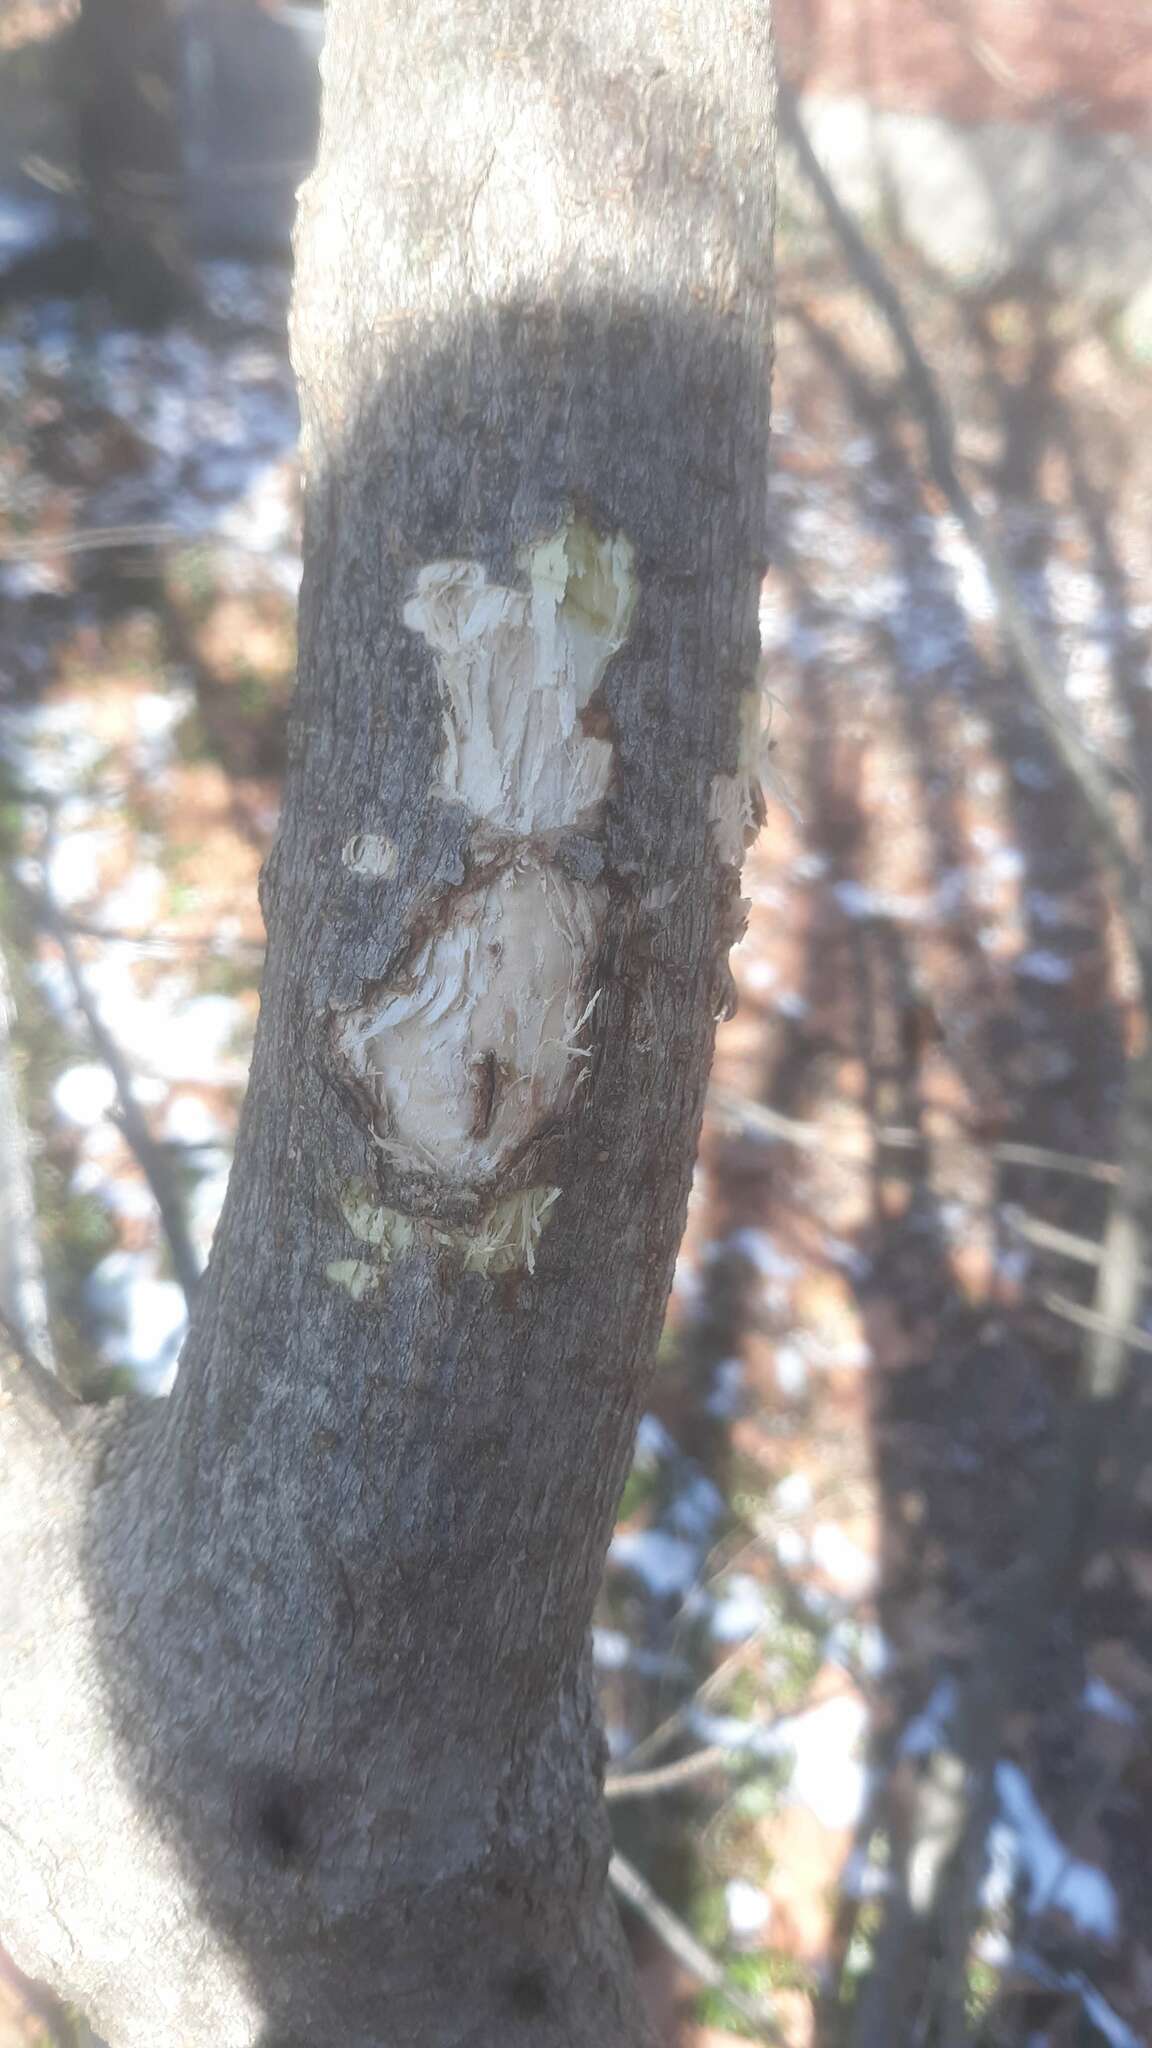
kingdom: Animalia
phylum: Chordata
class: Aves
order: Piciformes
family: Picidae
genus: Sphyrapicus
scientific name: Sphyrapicus varius
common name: Yellow-bellied sapsucker
